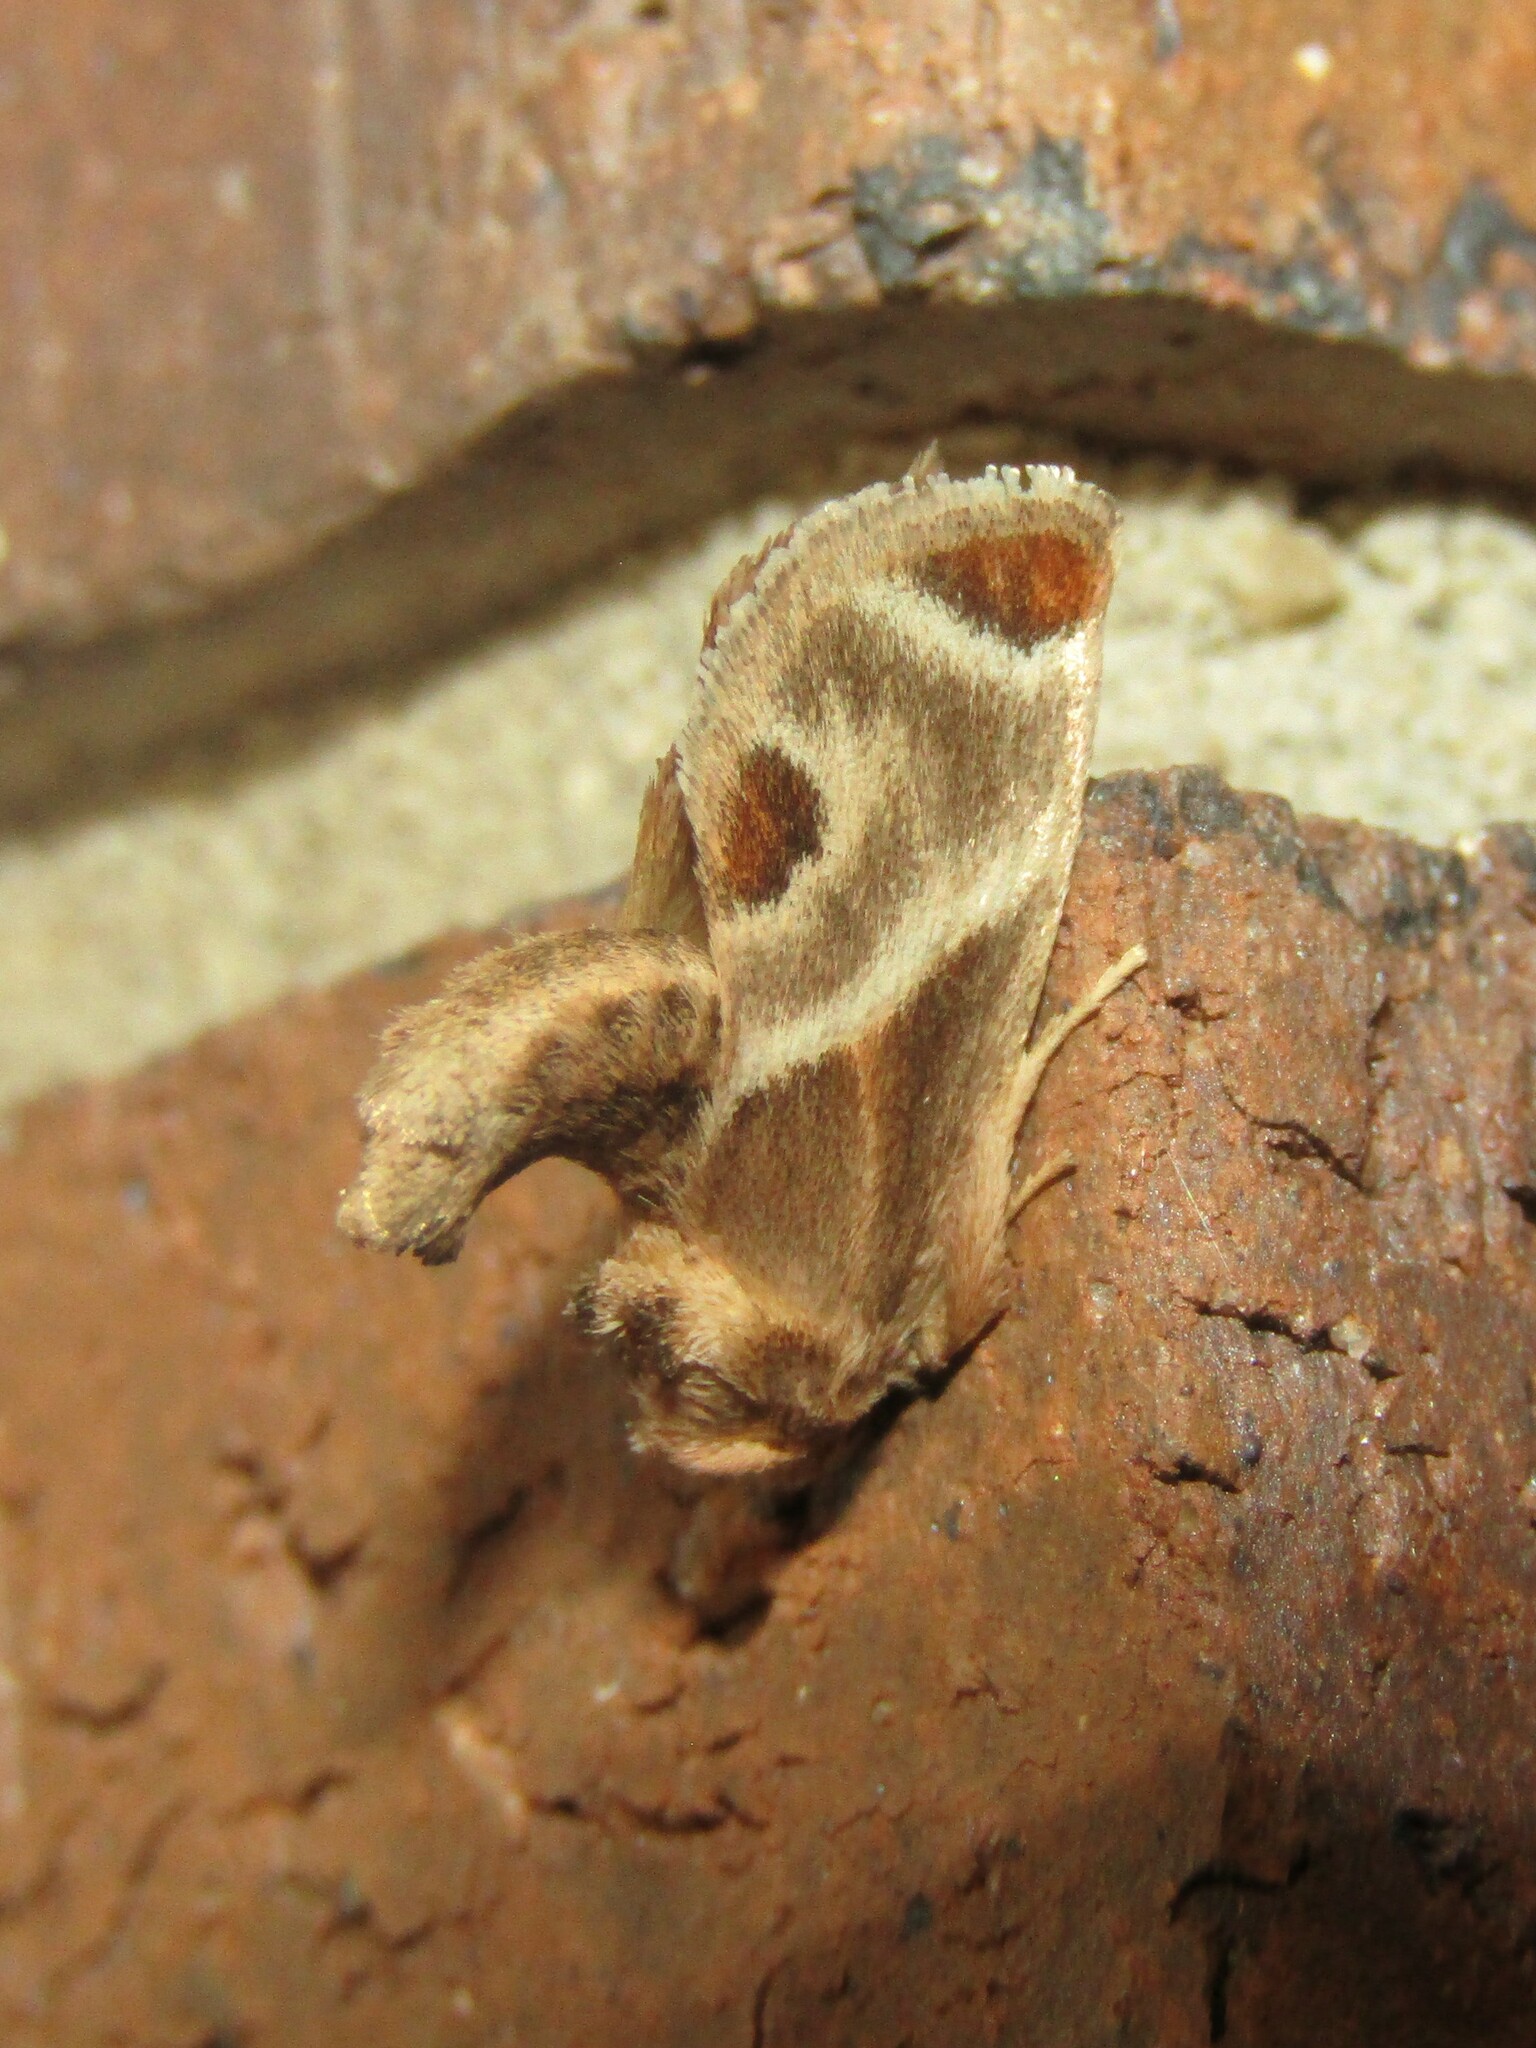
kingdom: Animalia
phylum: Arthropoda
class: Insecta
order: Lepidoptera
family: Limacodidae
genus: Apoda
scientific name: Apoda biguttata
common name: Shagreened slug moth
